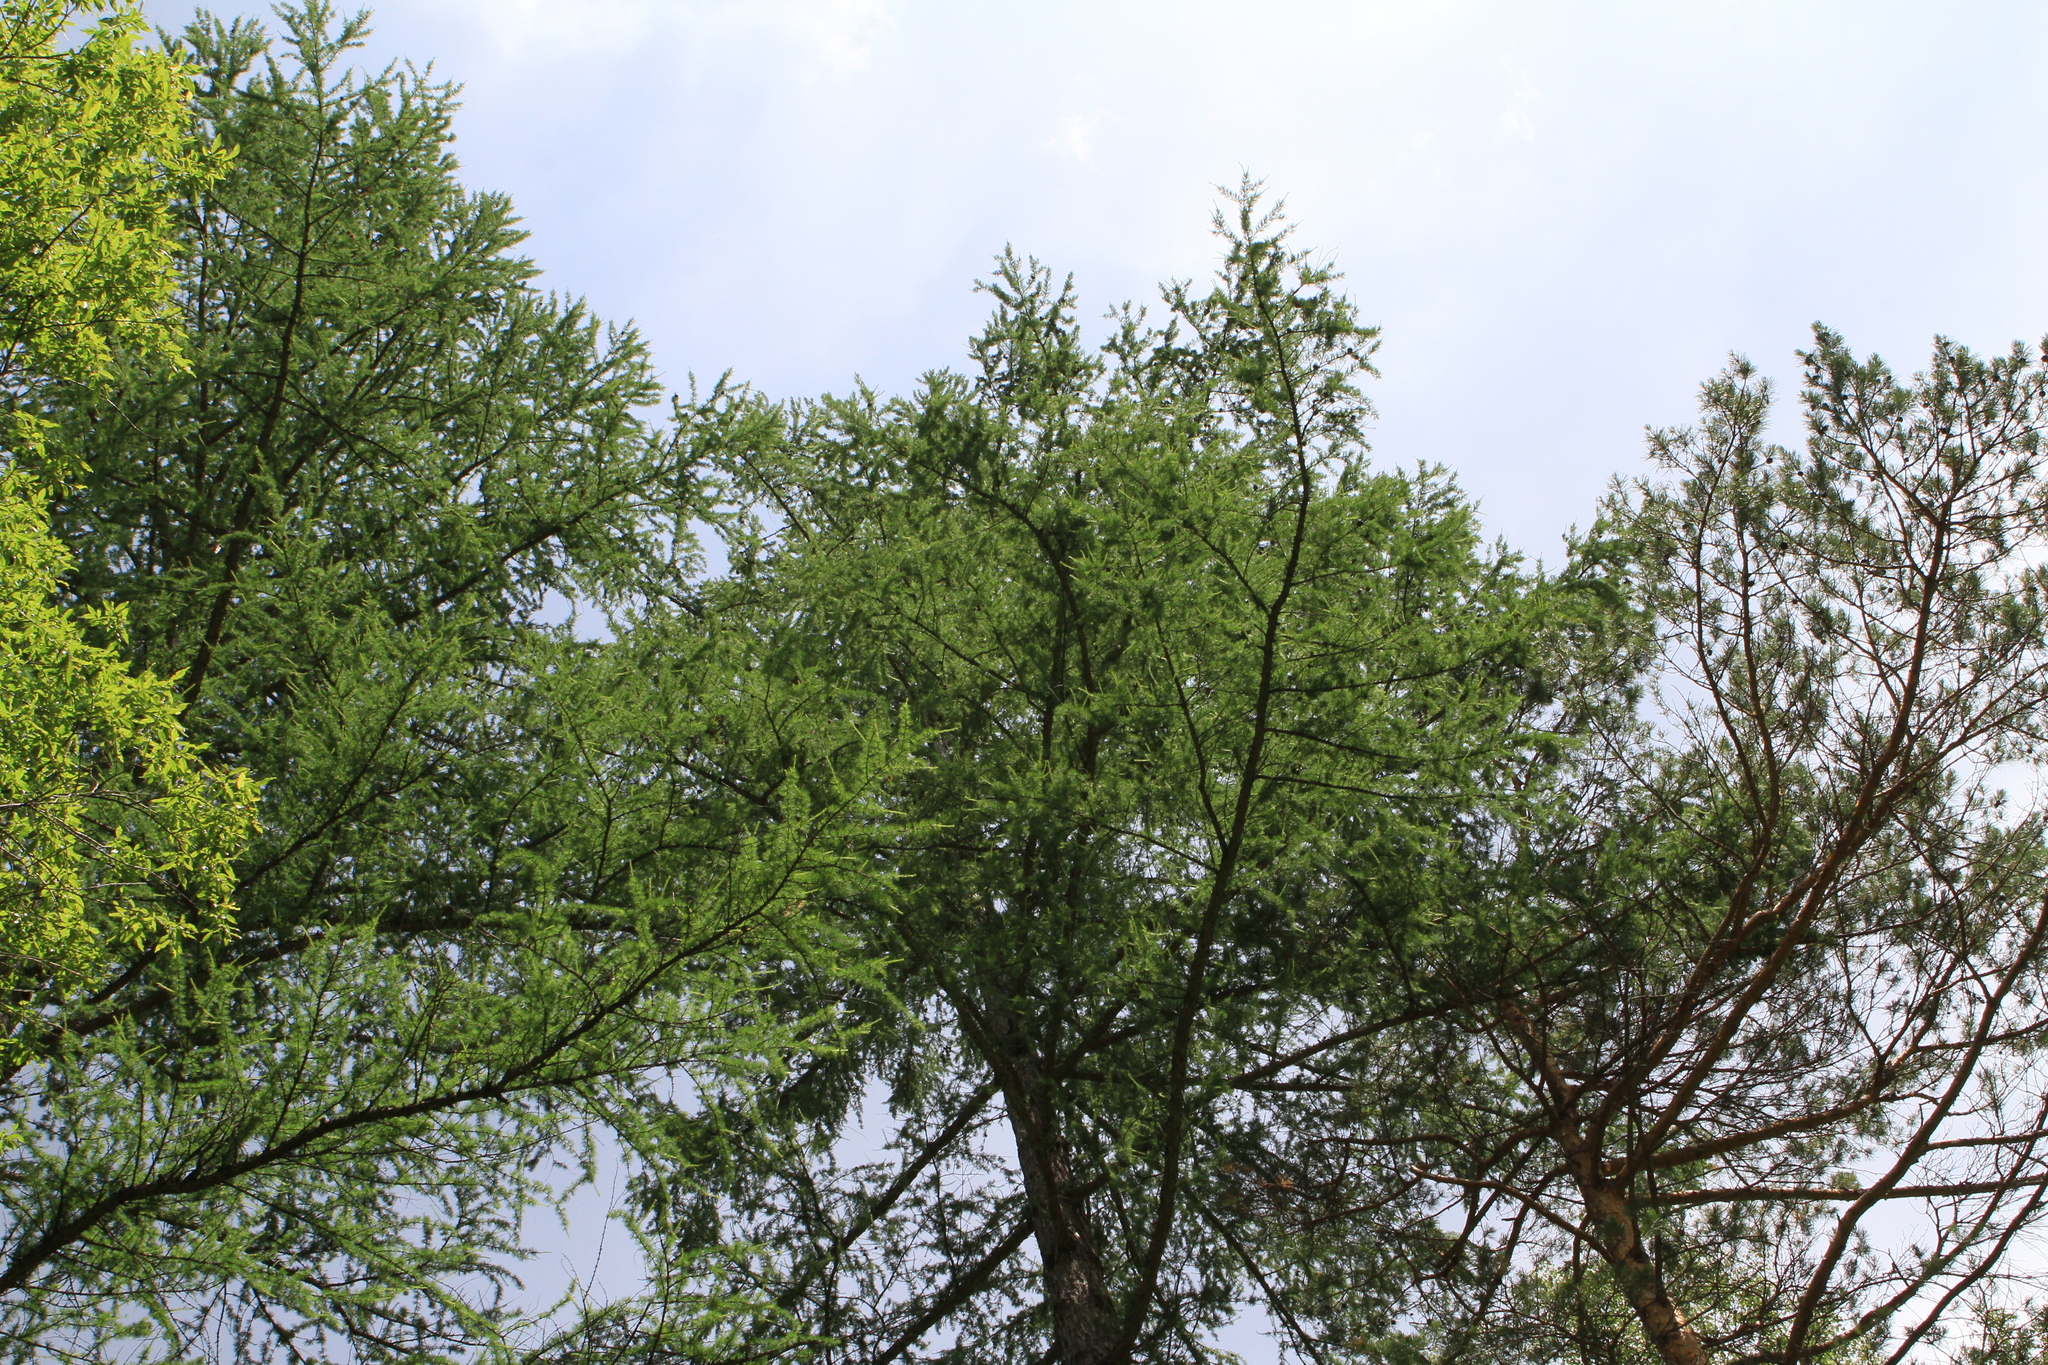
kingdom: Plantae
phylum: Tracheophyta
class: Pinopsida
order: Pinales
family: Pinaceae
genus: Larix
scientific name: Larix sibirica
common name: Siberian larch
